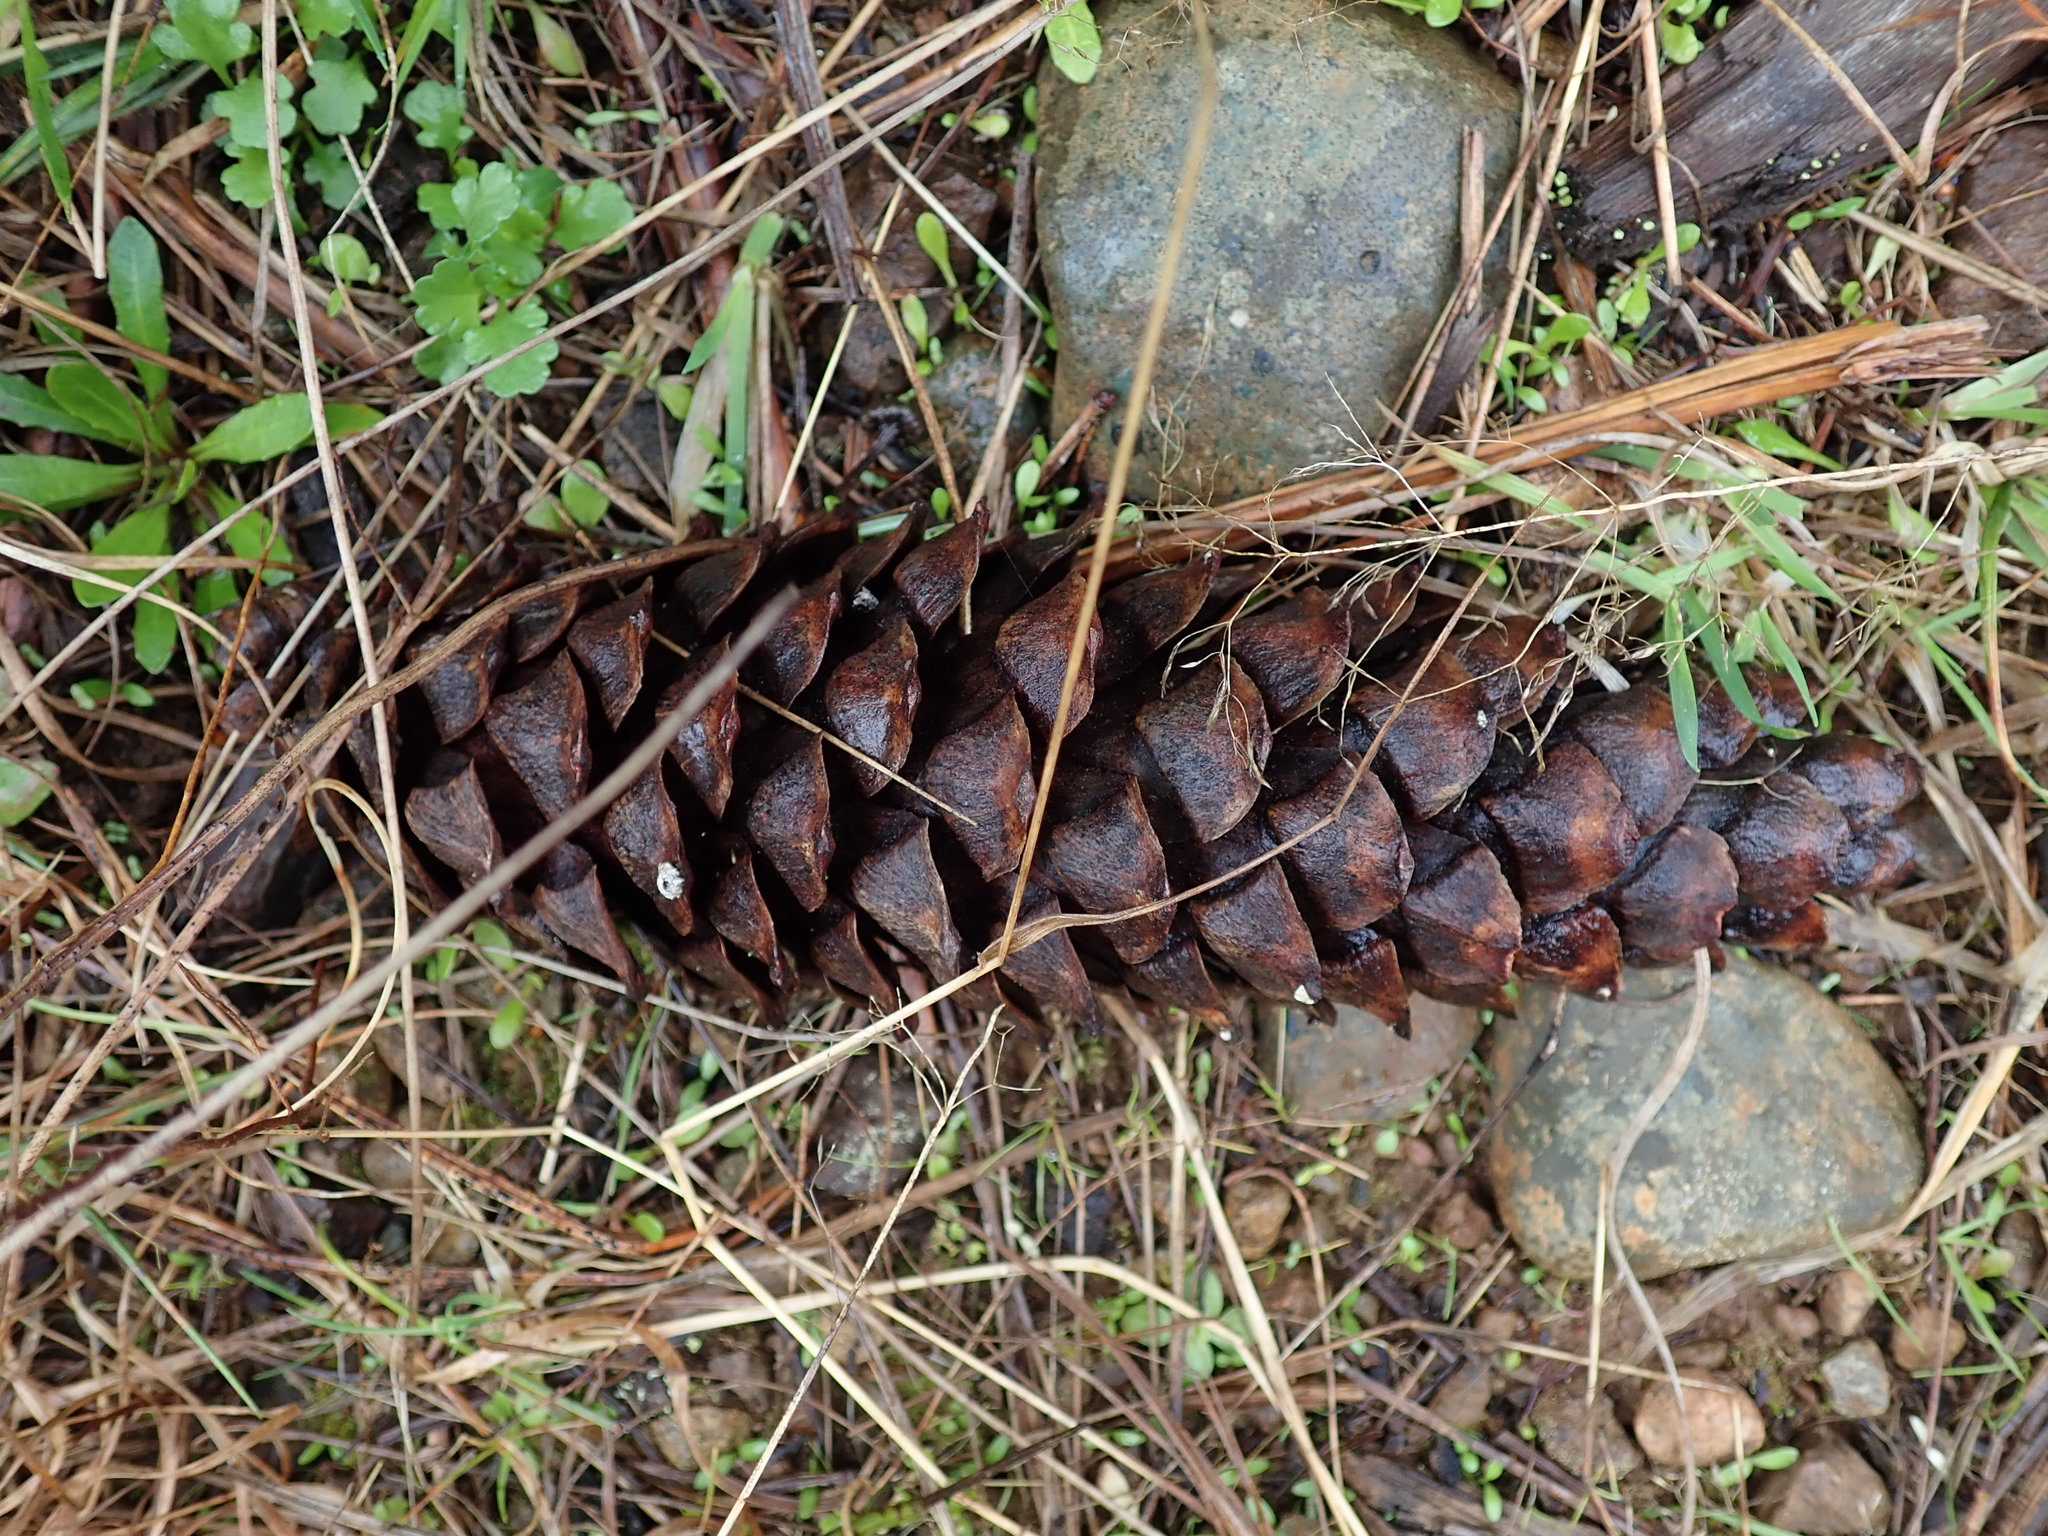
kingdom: Plantae
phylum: Tracheophyta
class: Pinopsida
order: Pinales
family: Pinaceae
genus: Pinus
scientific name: Pinus monticola
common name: Western white pine
